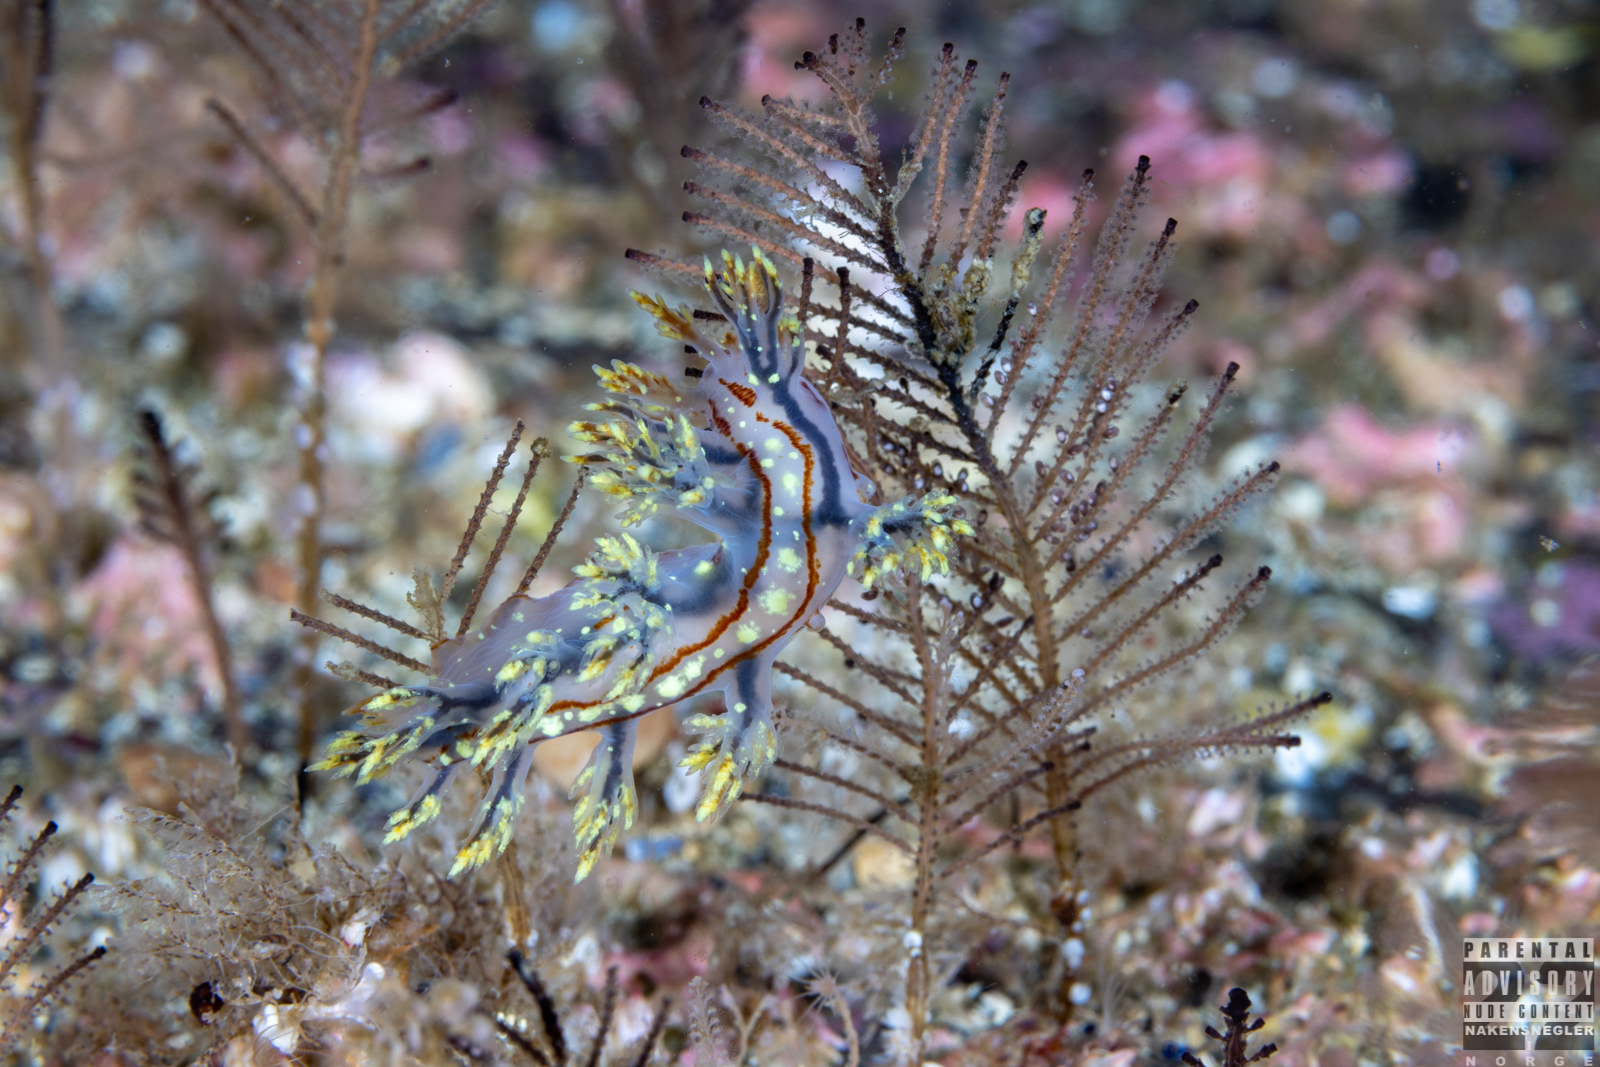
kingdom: Animalia
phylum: Mollusca
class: Gastropoda
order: Nudibranchia
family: Dendronotidae
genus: Dendronotus
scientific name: Dendronotus yrjargul
